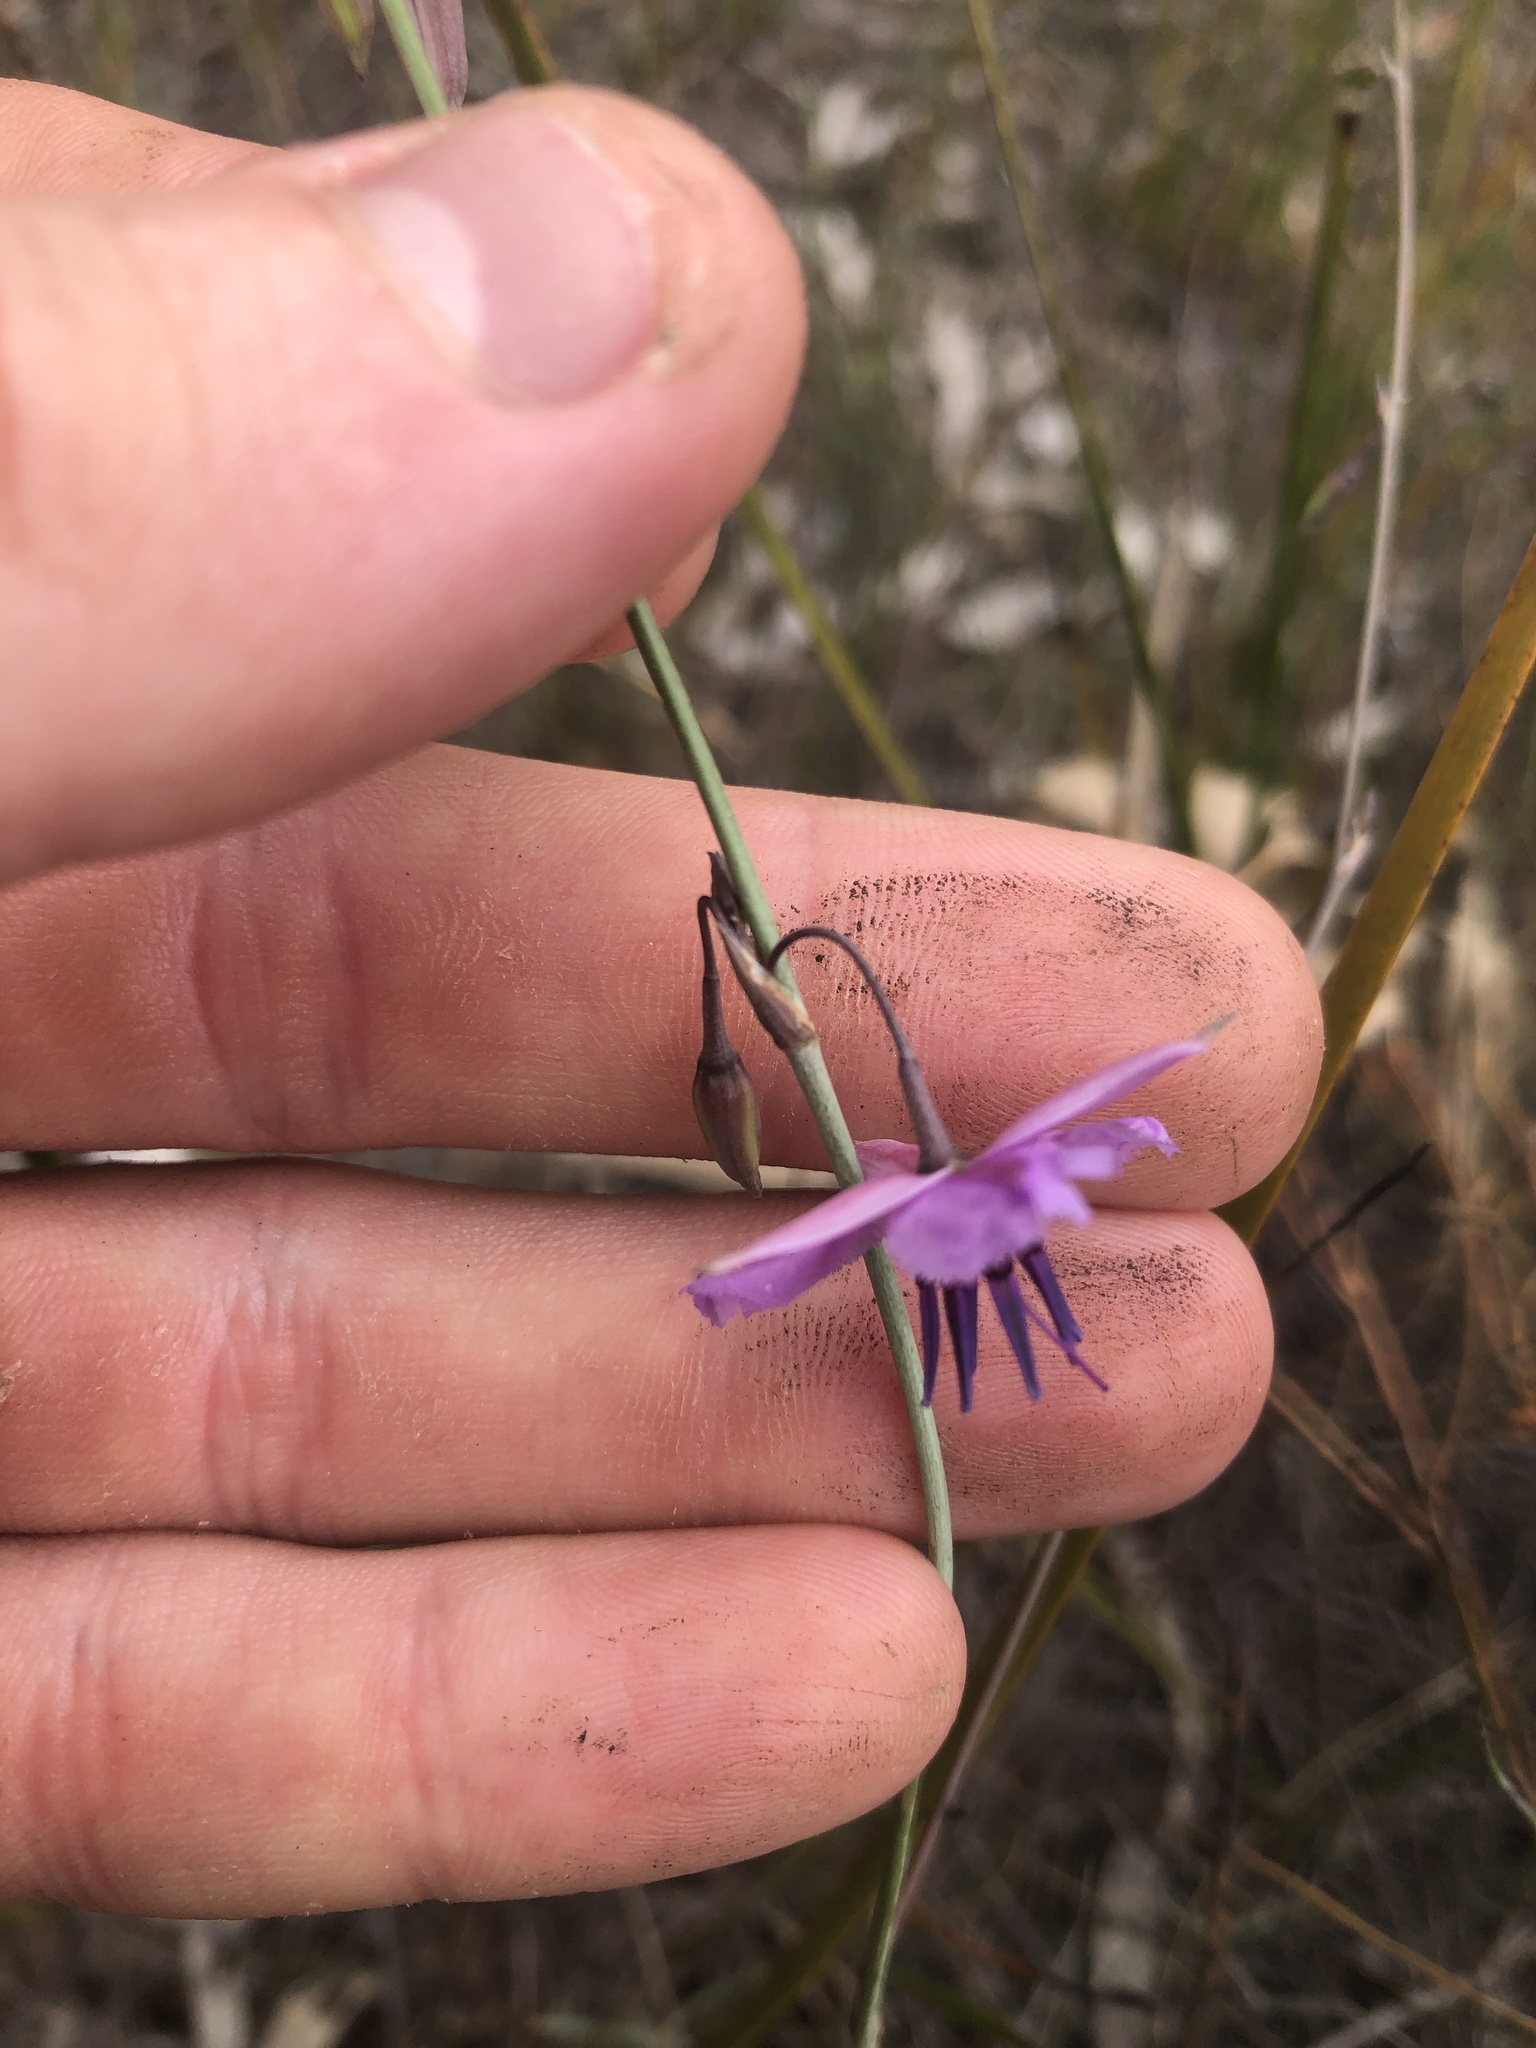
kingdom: Plantae
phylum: Tracheophyta
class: Liliopsida
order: Asparagales
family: Asparagaceae
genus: Dichopogon
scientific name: Dichopogon fimbriatus
